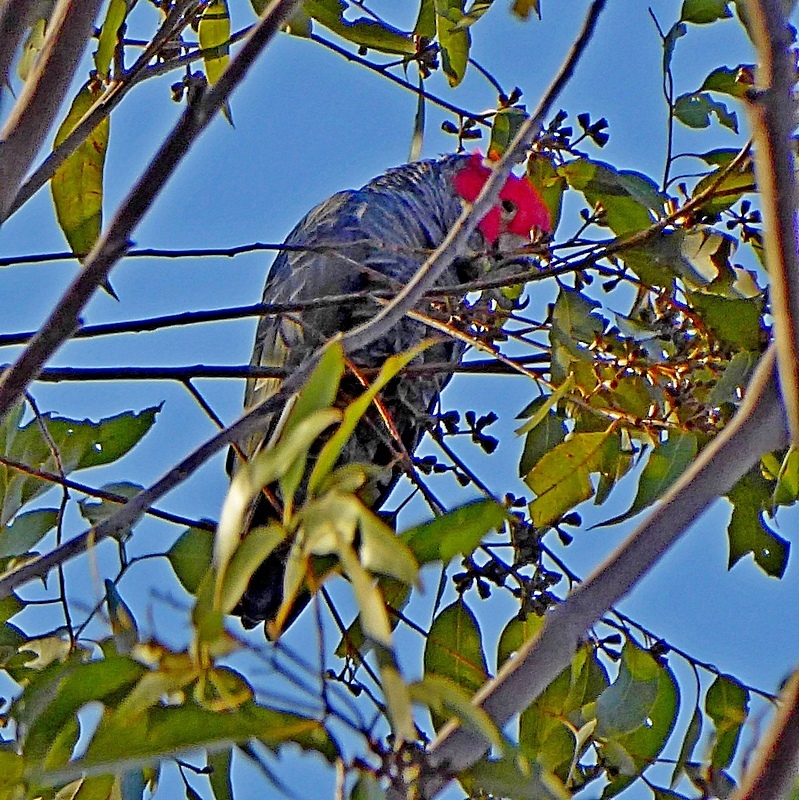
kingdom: Animalia
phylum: Chordata
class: Aves
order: Psittaciformes
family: Psittacidae
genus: Callocephalon
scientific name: Callocephalon fimbriatum
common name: Gang-gang cockatoo
